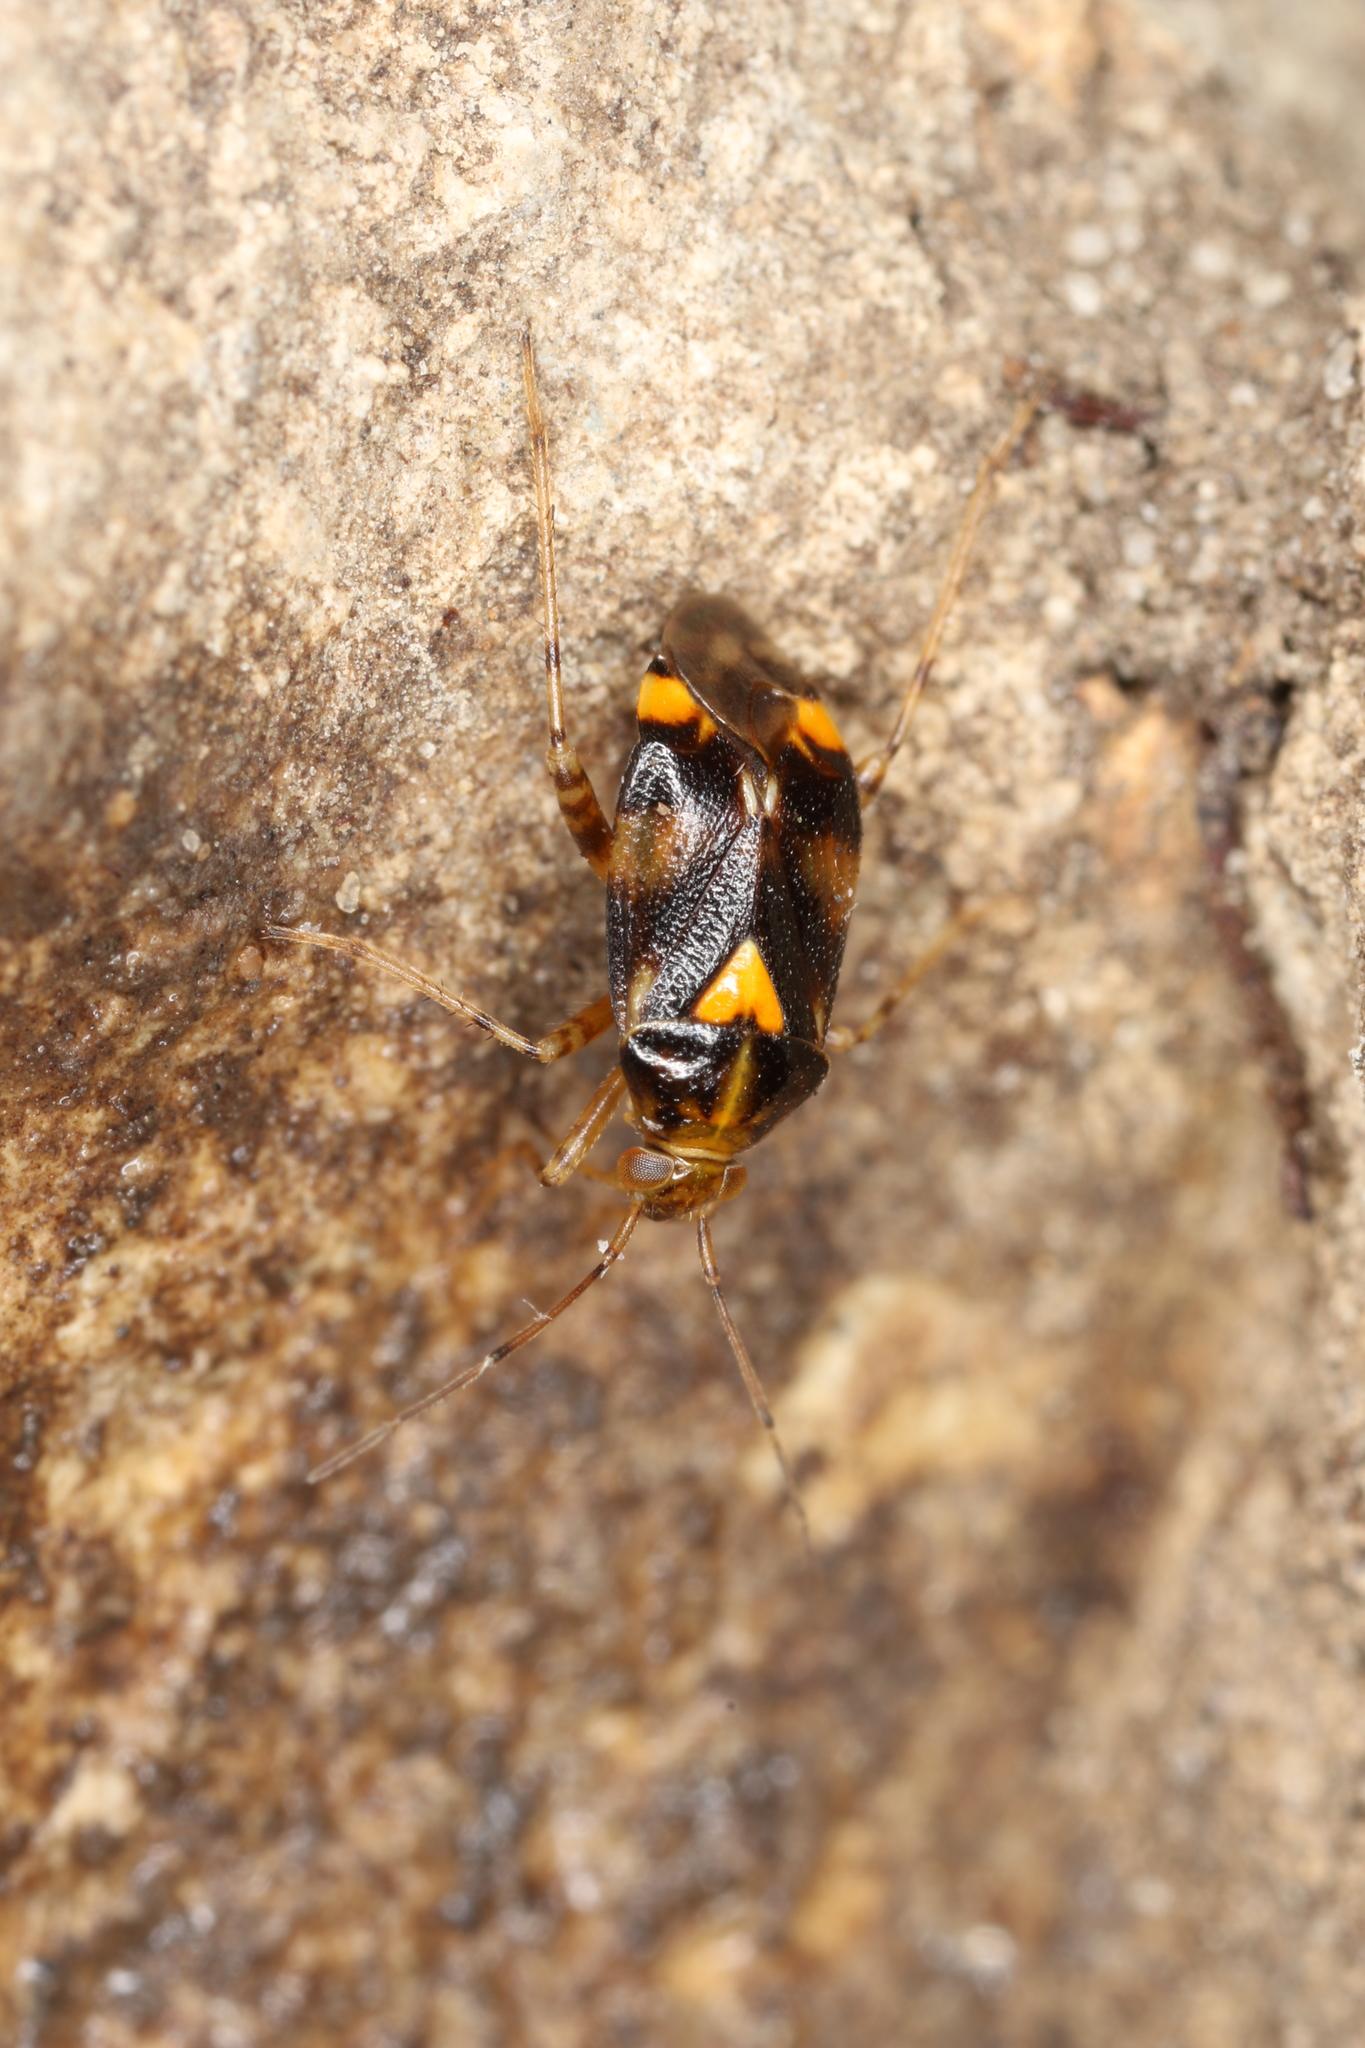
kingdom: Animalia
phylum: Arthropoda
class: Insecta
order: Hemiptera
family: Miridae
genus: Liocoris
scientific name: Liocoris tripustulatus
